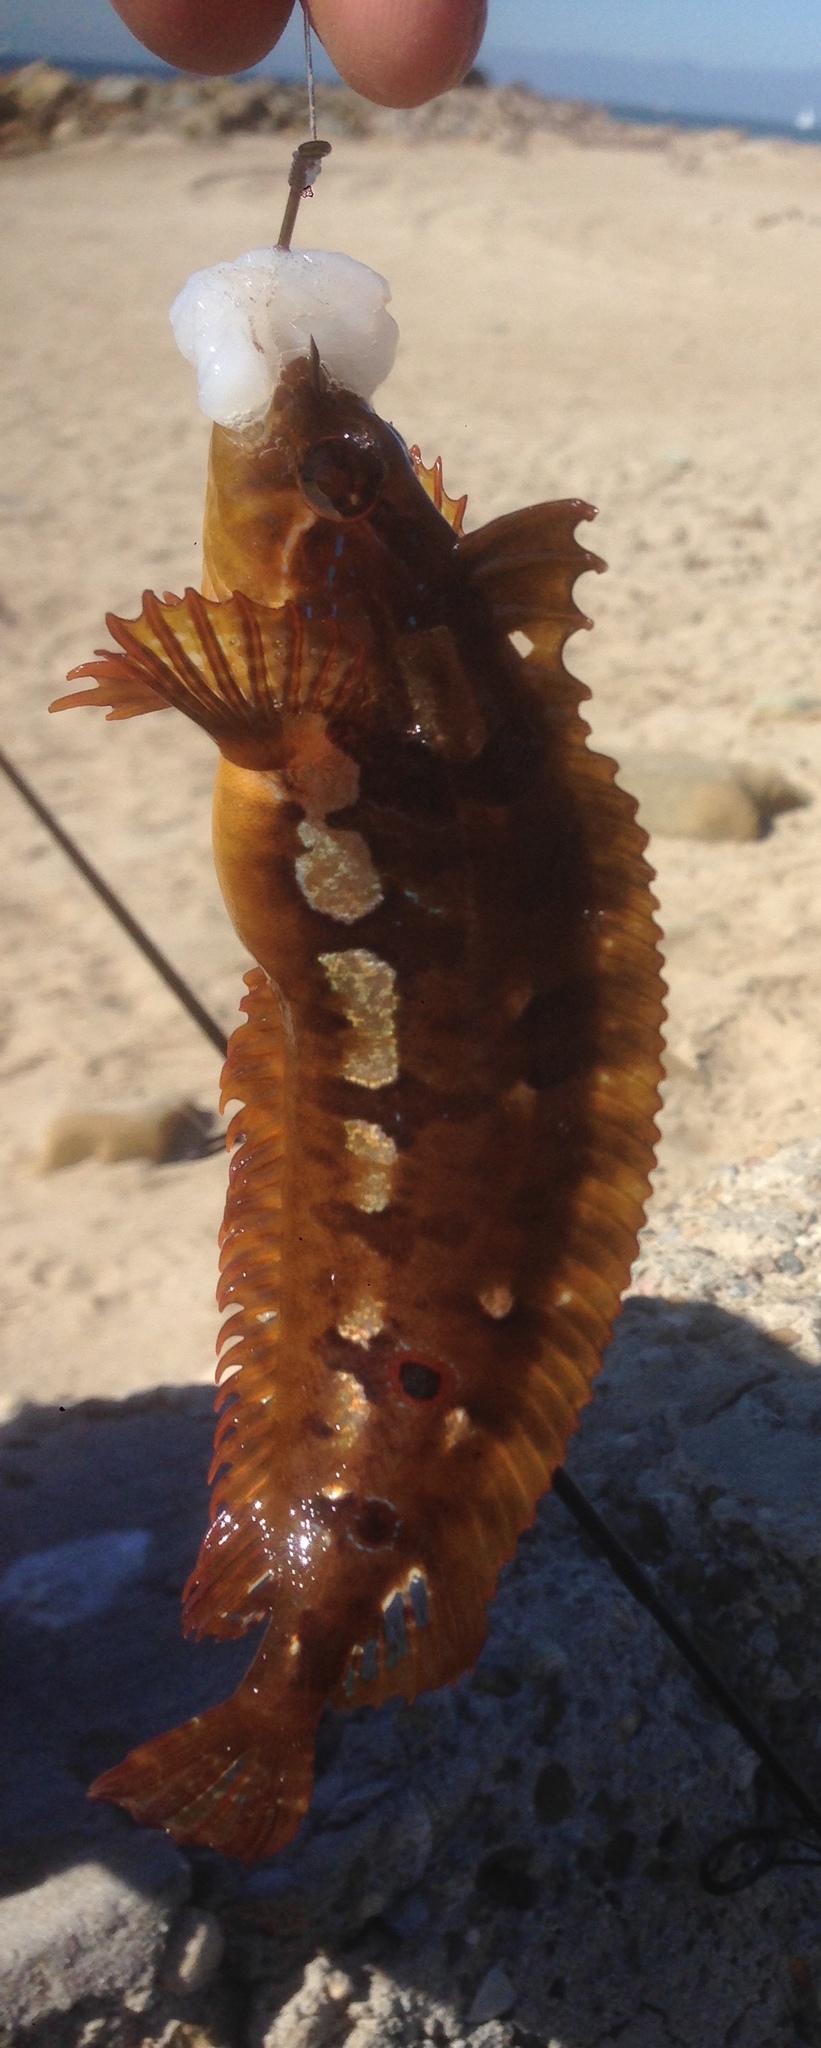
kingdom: Animalia
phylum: Chordata
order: Perciformes
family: Clinidae
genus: Gibbonsia
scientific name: Gibbonsia elegans
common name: Spotted kelpfish
